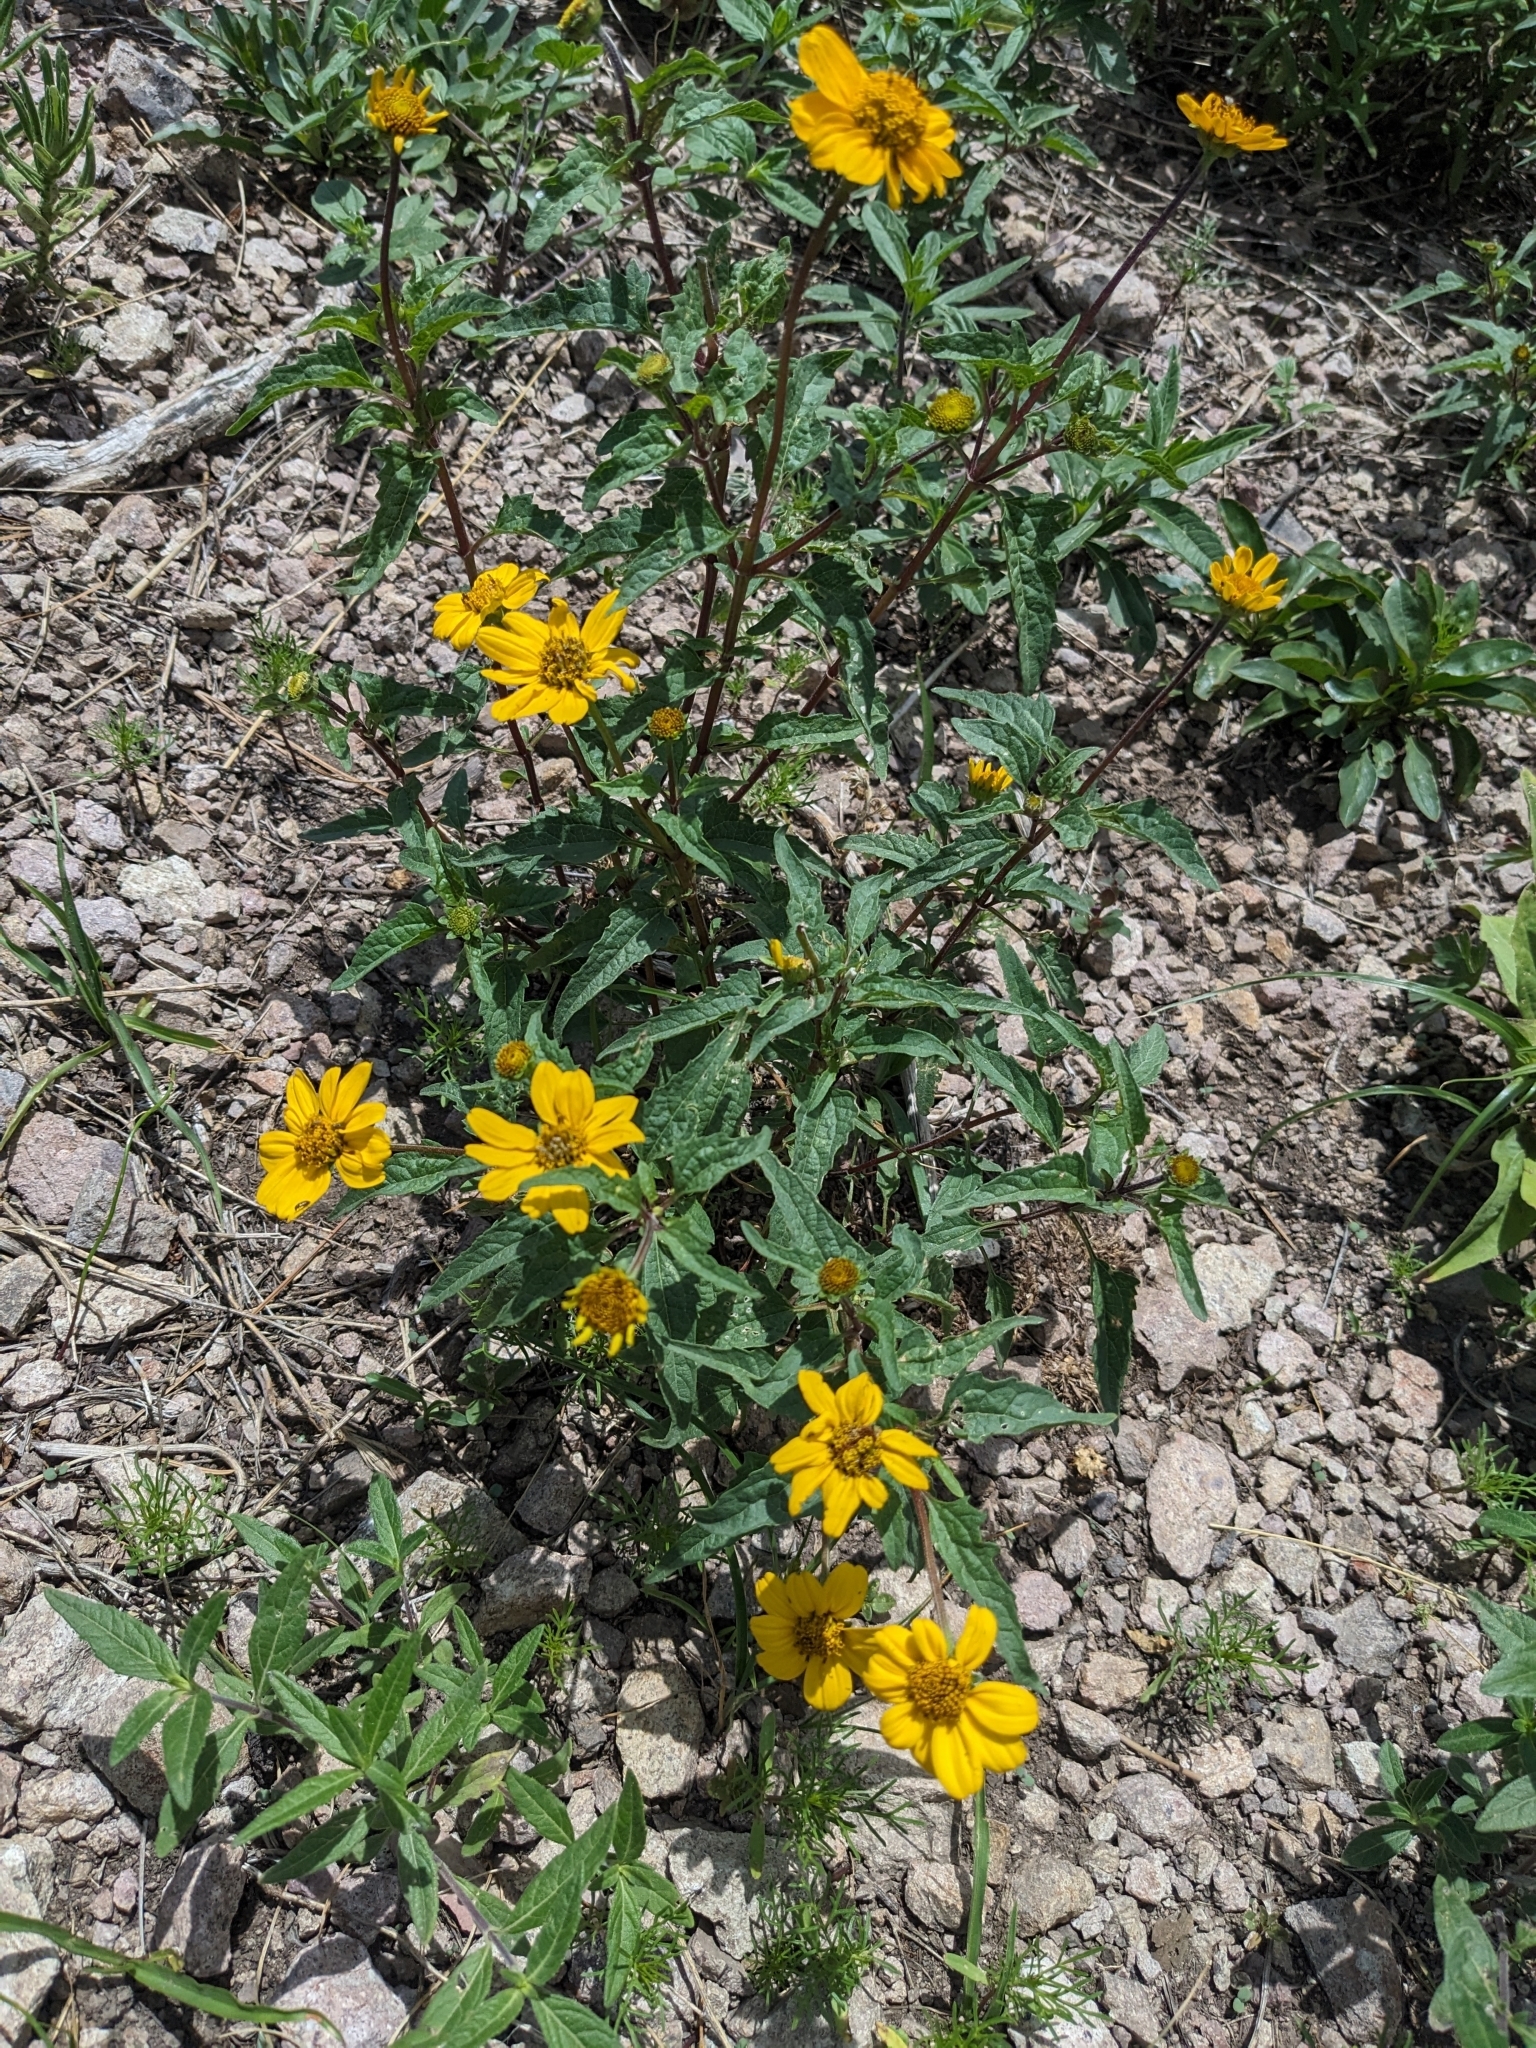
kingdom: Plantae
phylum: Tracheophyta
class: Magnoliopsida
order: Asterales
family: Asteraceae
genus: Heliopsis
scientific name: Heliopsis parvifolia
